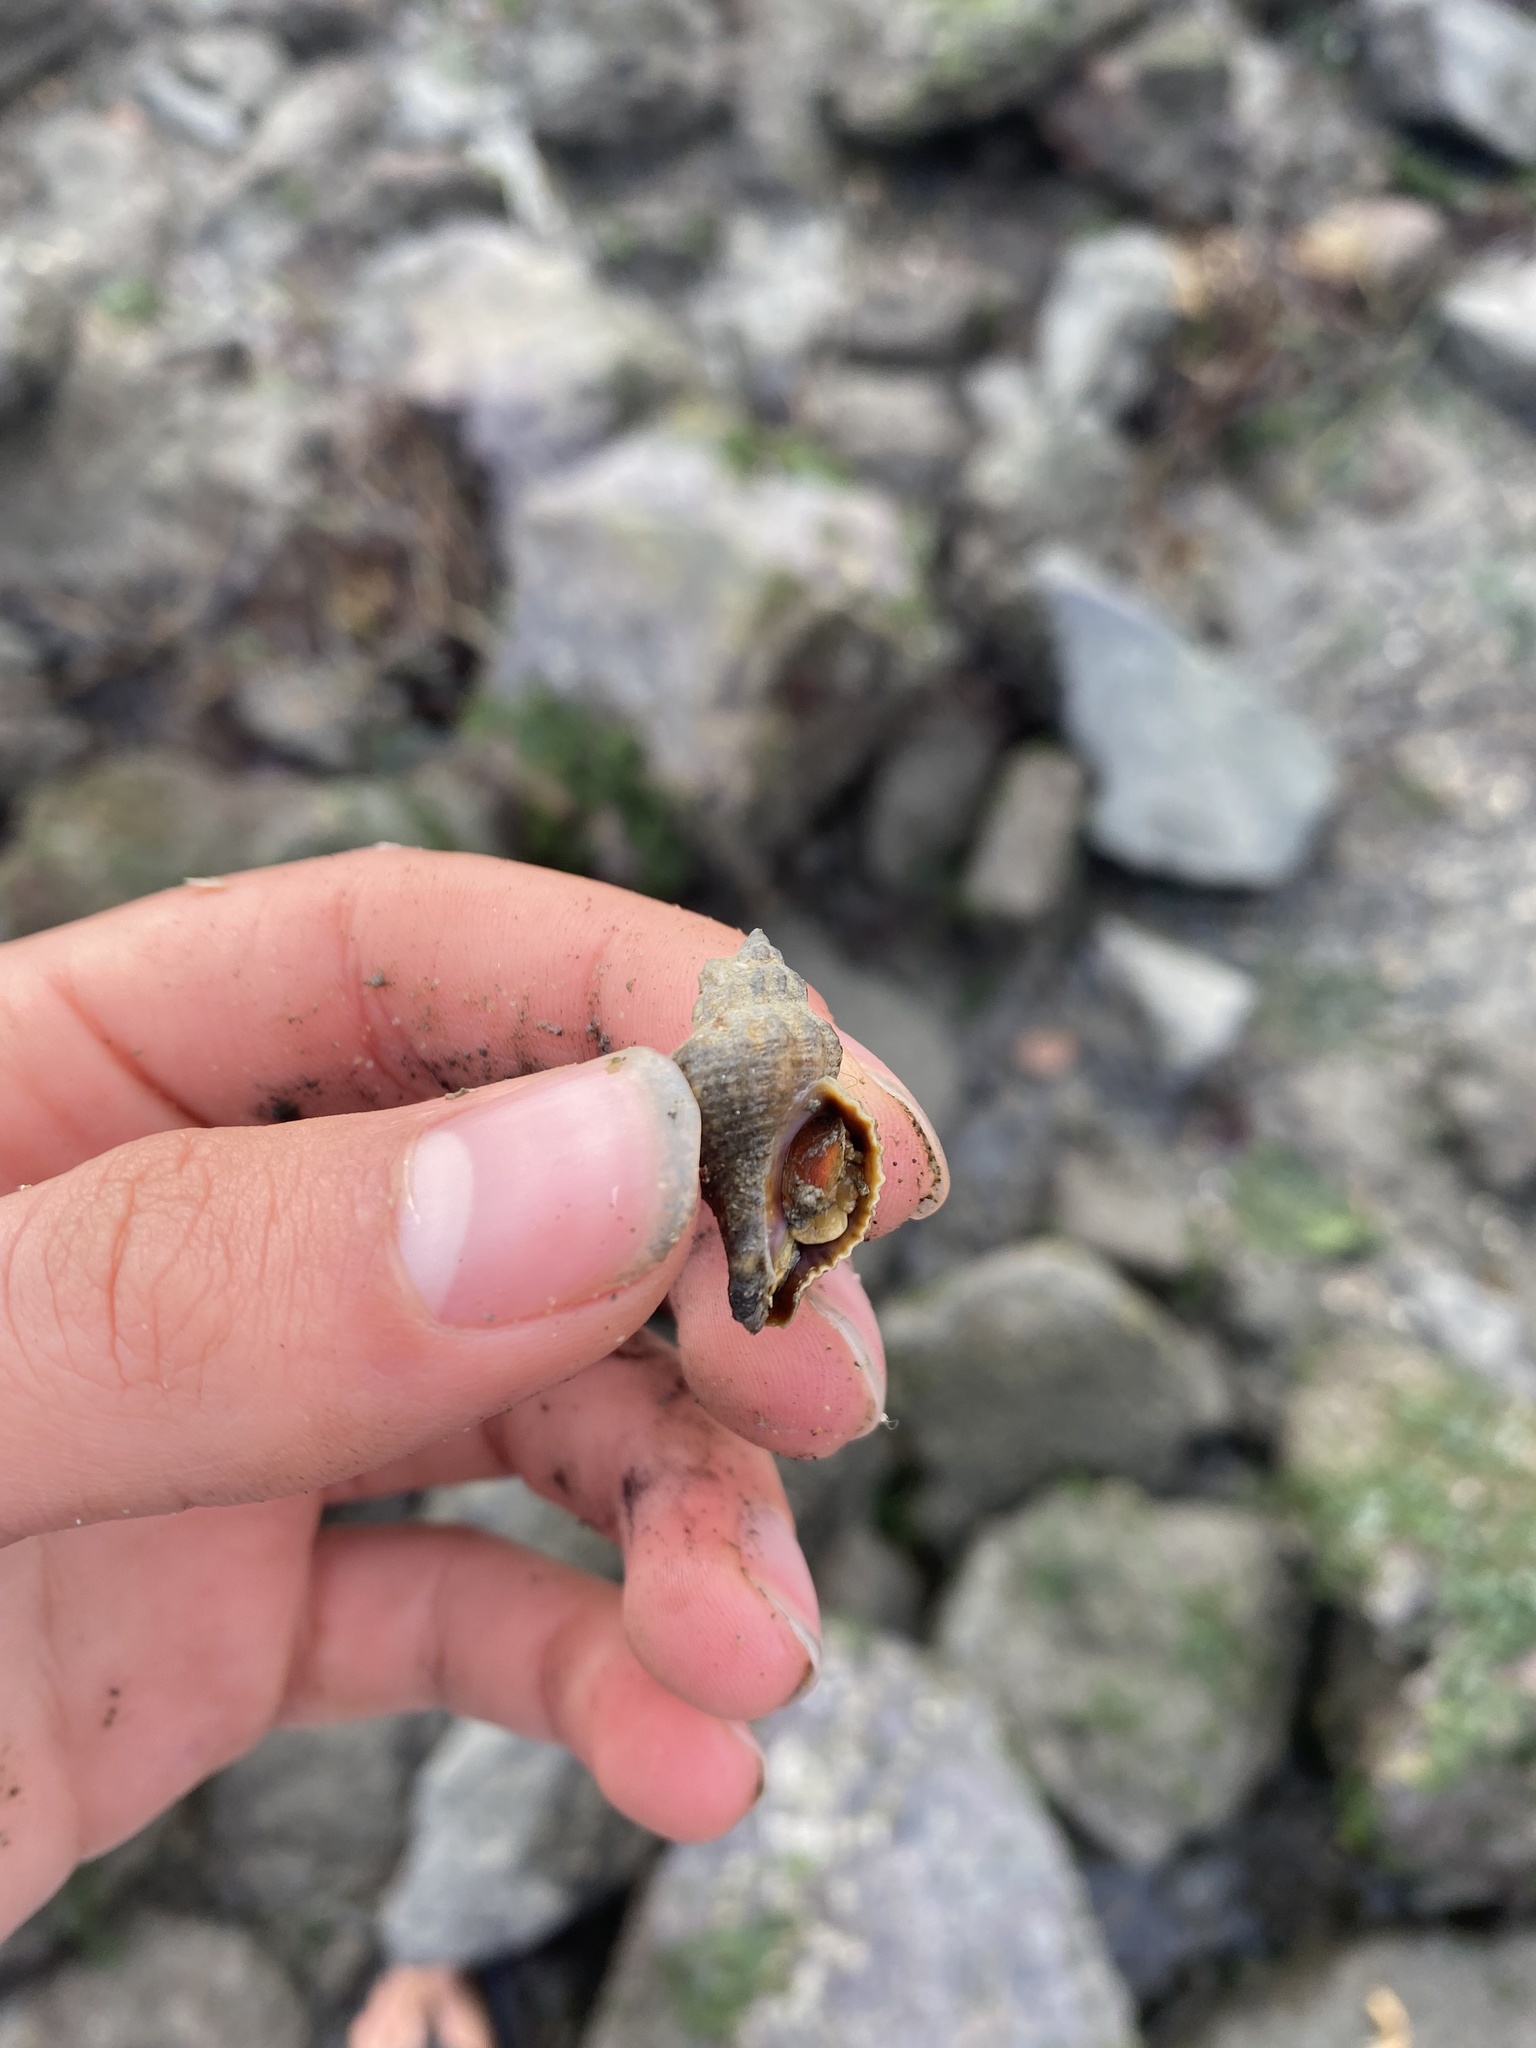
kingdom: Animalia
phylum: Mollusca
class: Gastropoda
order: Neogastropoda
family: Muricidae
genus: Urosalpinx
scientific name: Urosalpinx cinerea
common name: American sting winkle
